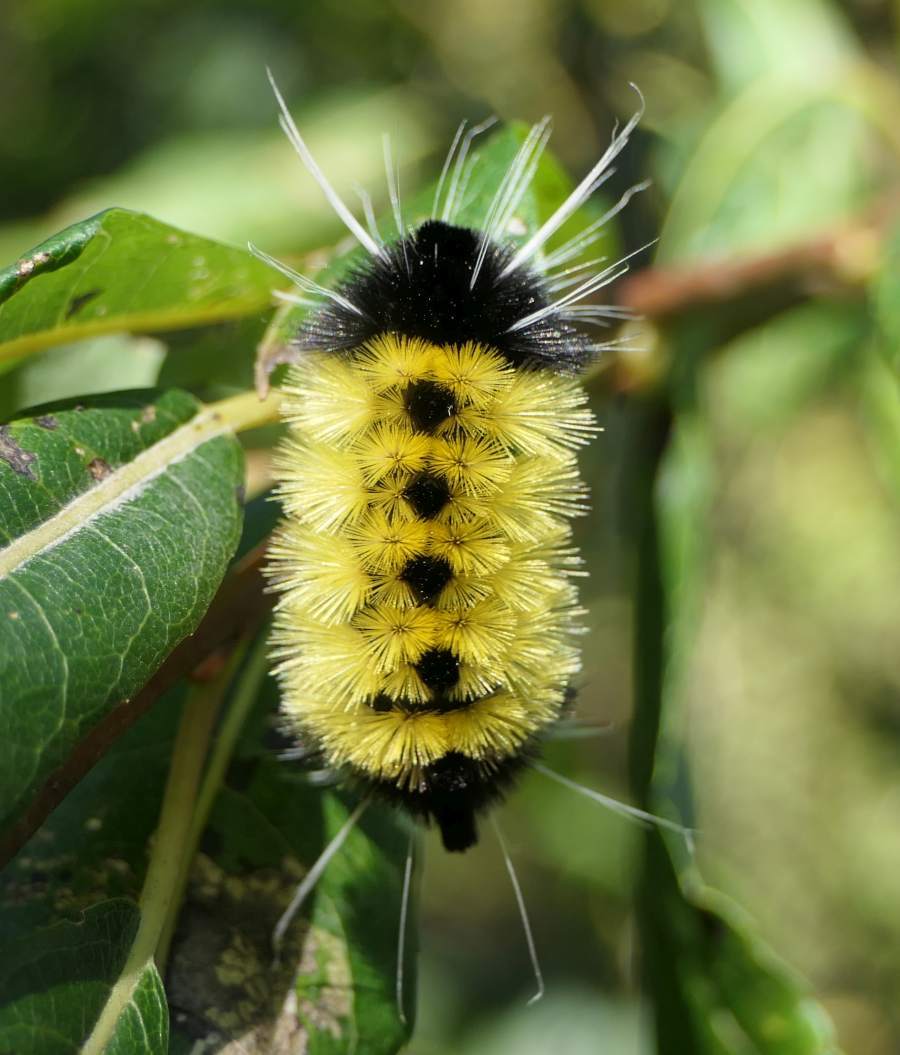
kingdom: Animalia
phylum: Arthropoda
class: Insecta
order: Lepidoptera
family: Erebidae
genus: Lophocampa
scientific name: Lophocampa maculata
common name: Spotted tussock moth
